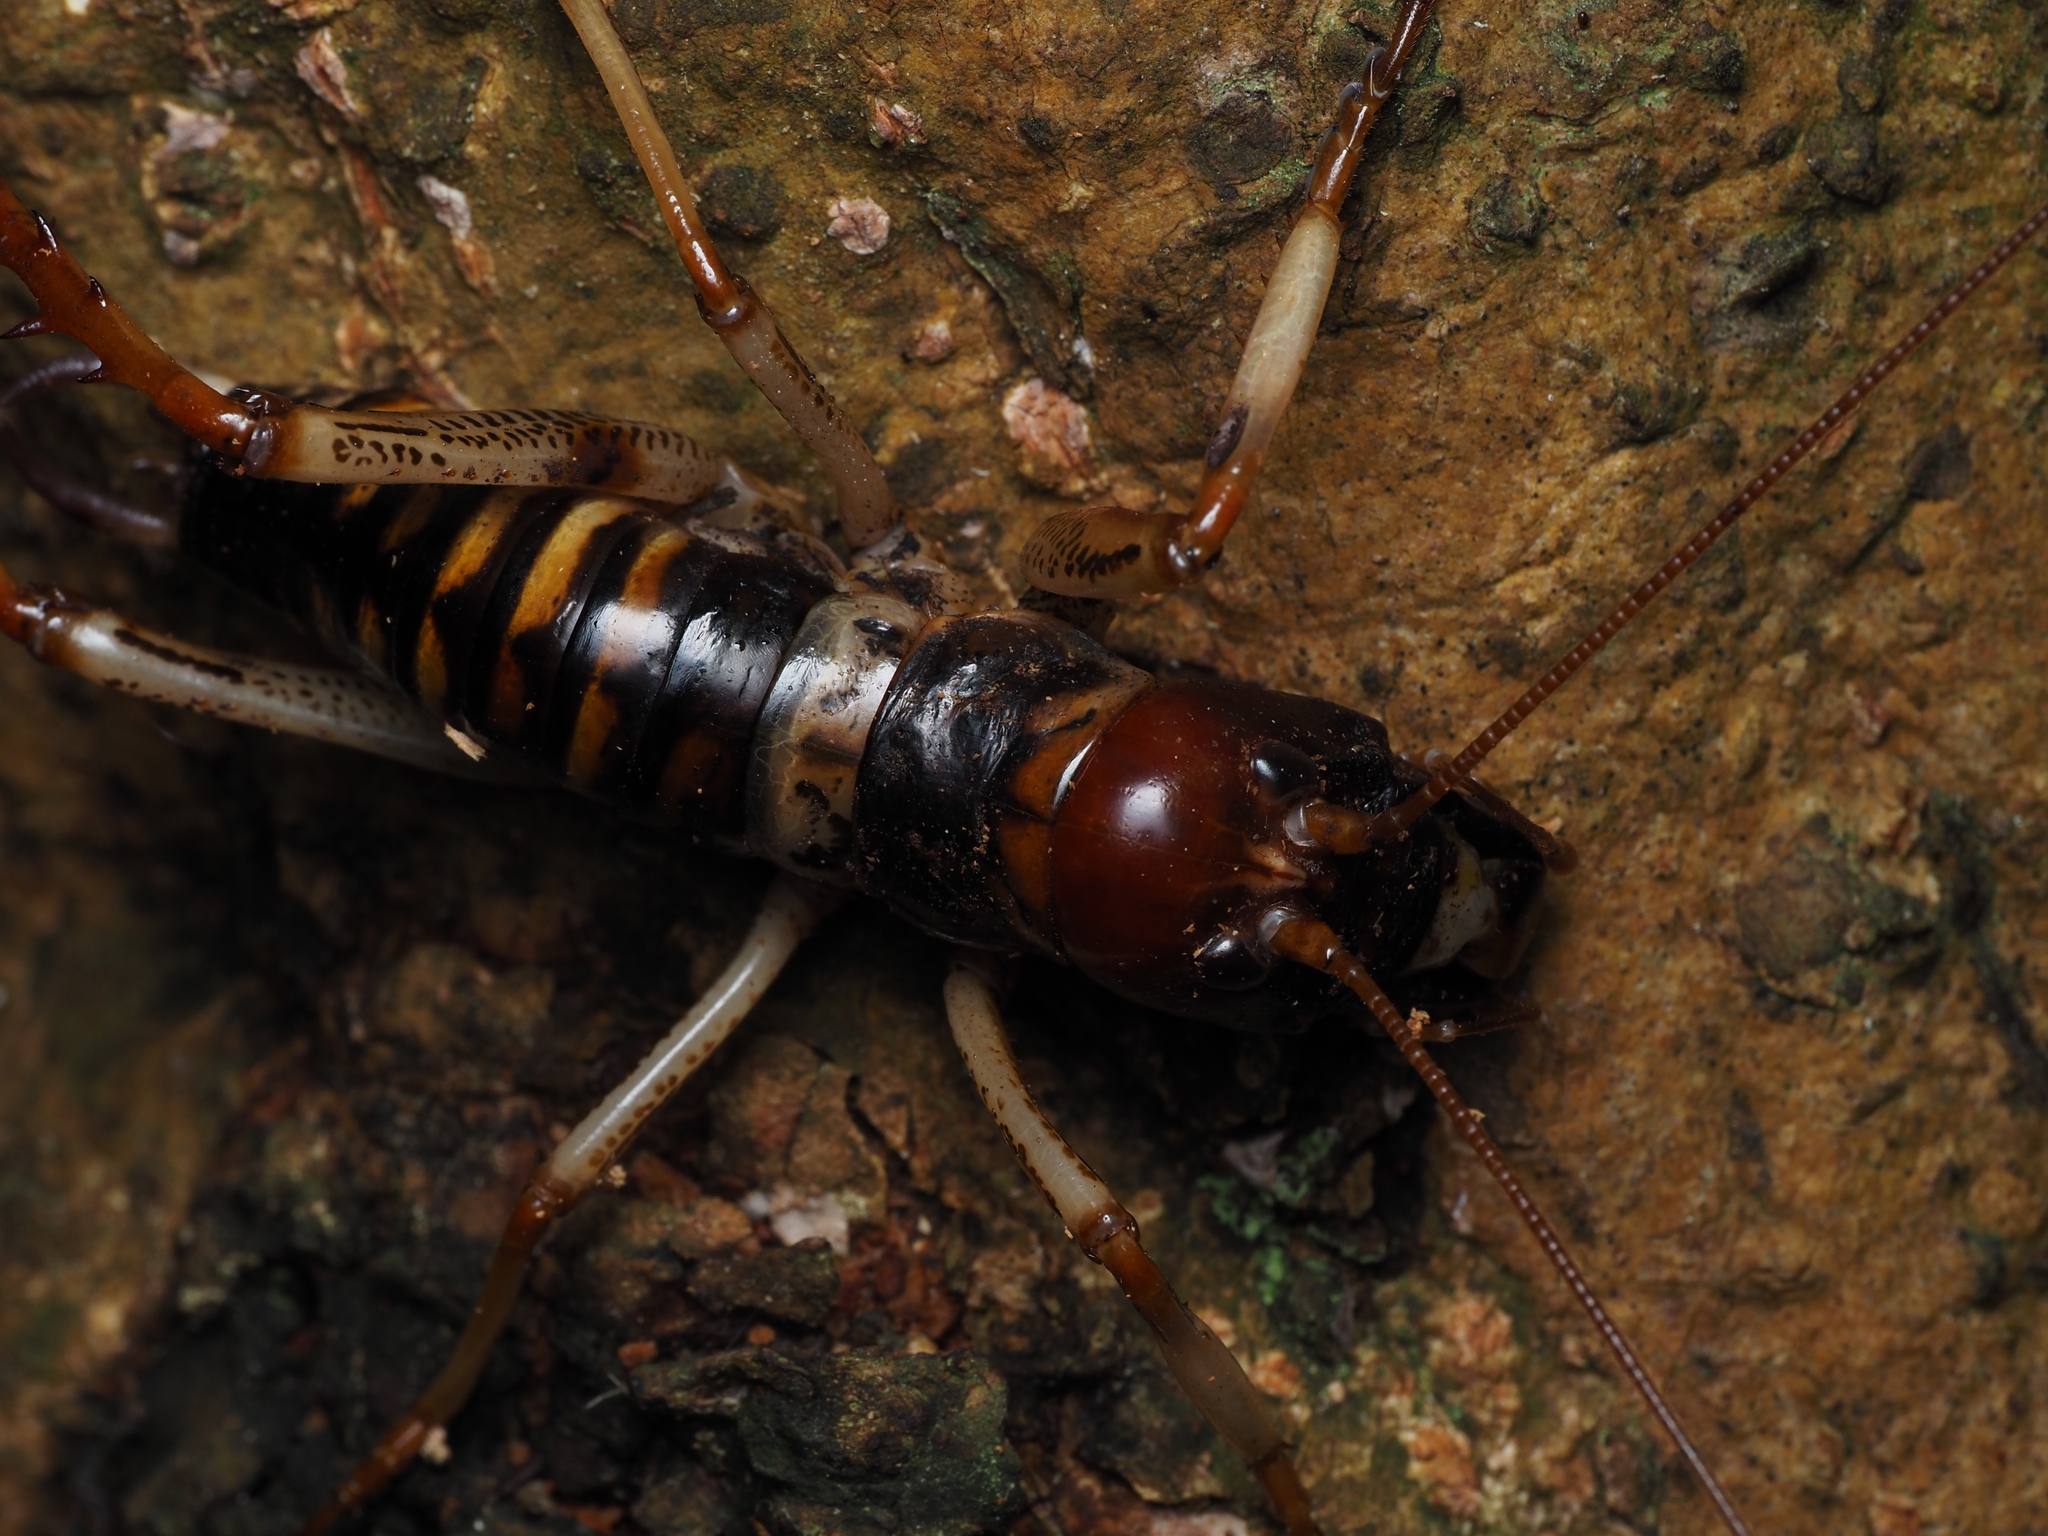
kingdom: Animalia
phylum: Arthropoda
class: Insecta
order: Orthoptera
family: Anostostomatidae
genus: Hemideina
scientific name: Hemideina crassidens
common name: Wellington tree weta
